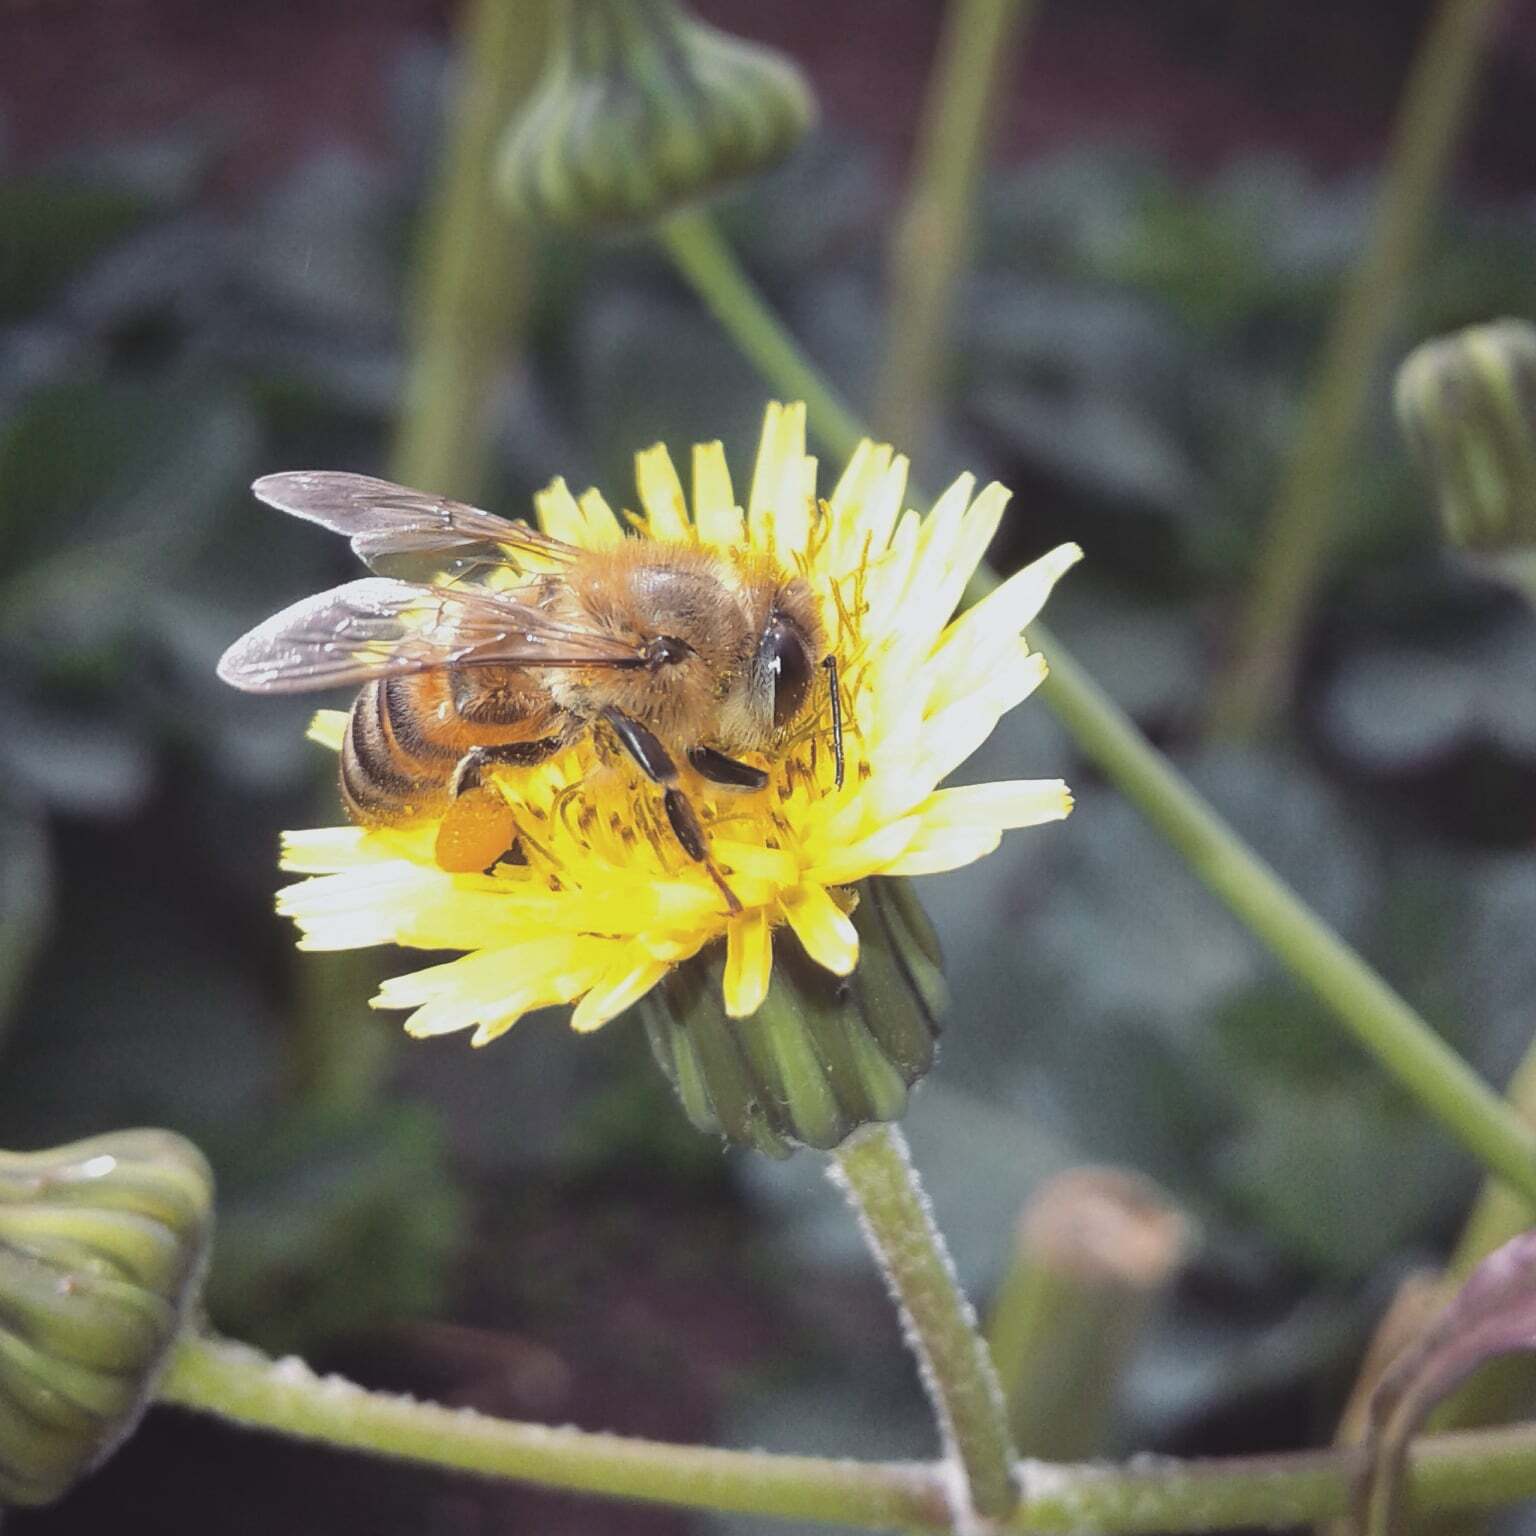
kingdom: Animalia
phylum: Arthropoda
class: Insecta
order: Hymenoptera
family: Apidae
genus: Apis
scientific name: Apis mellifera
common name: Honey bee
